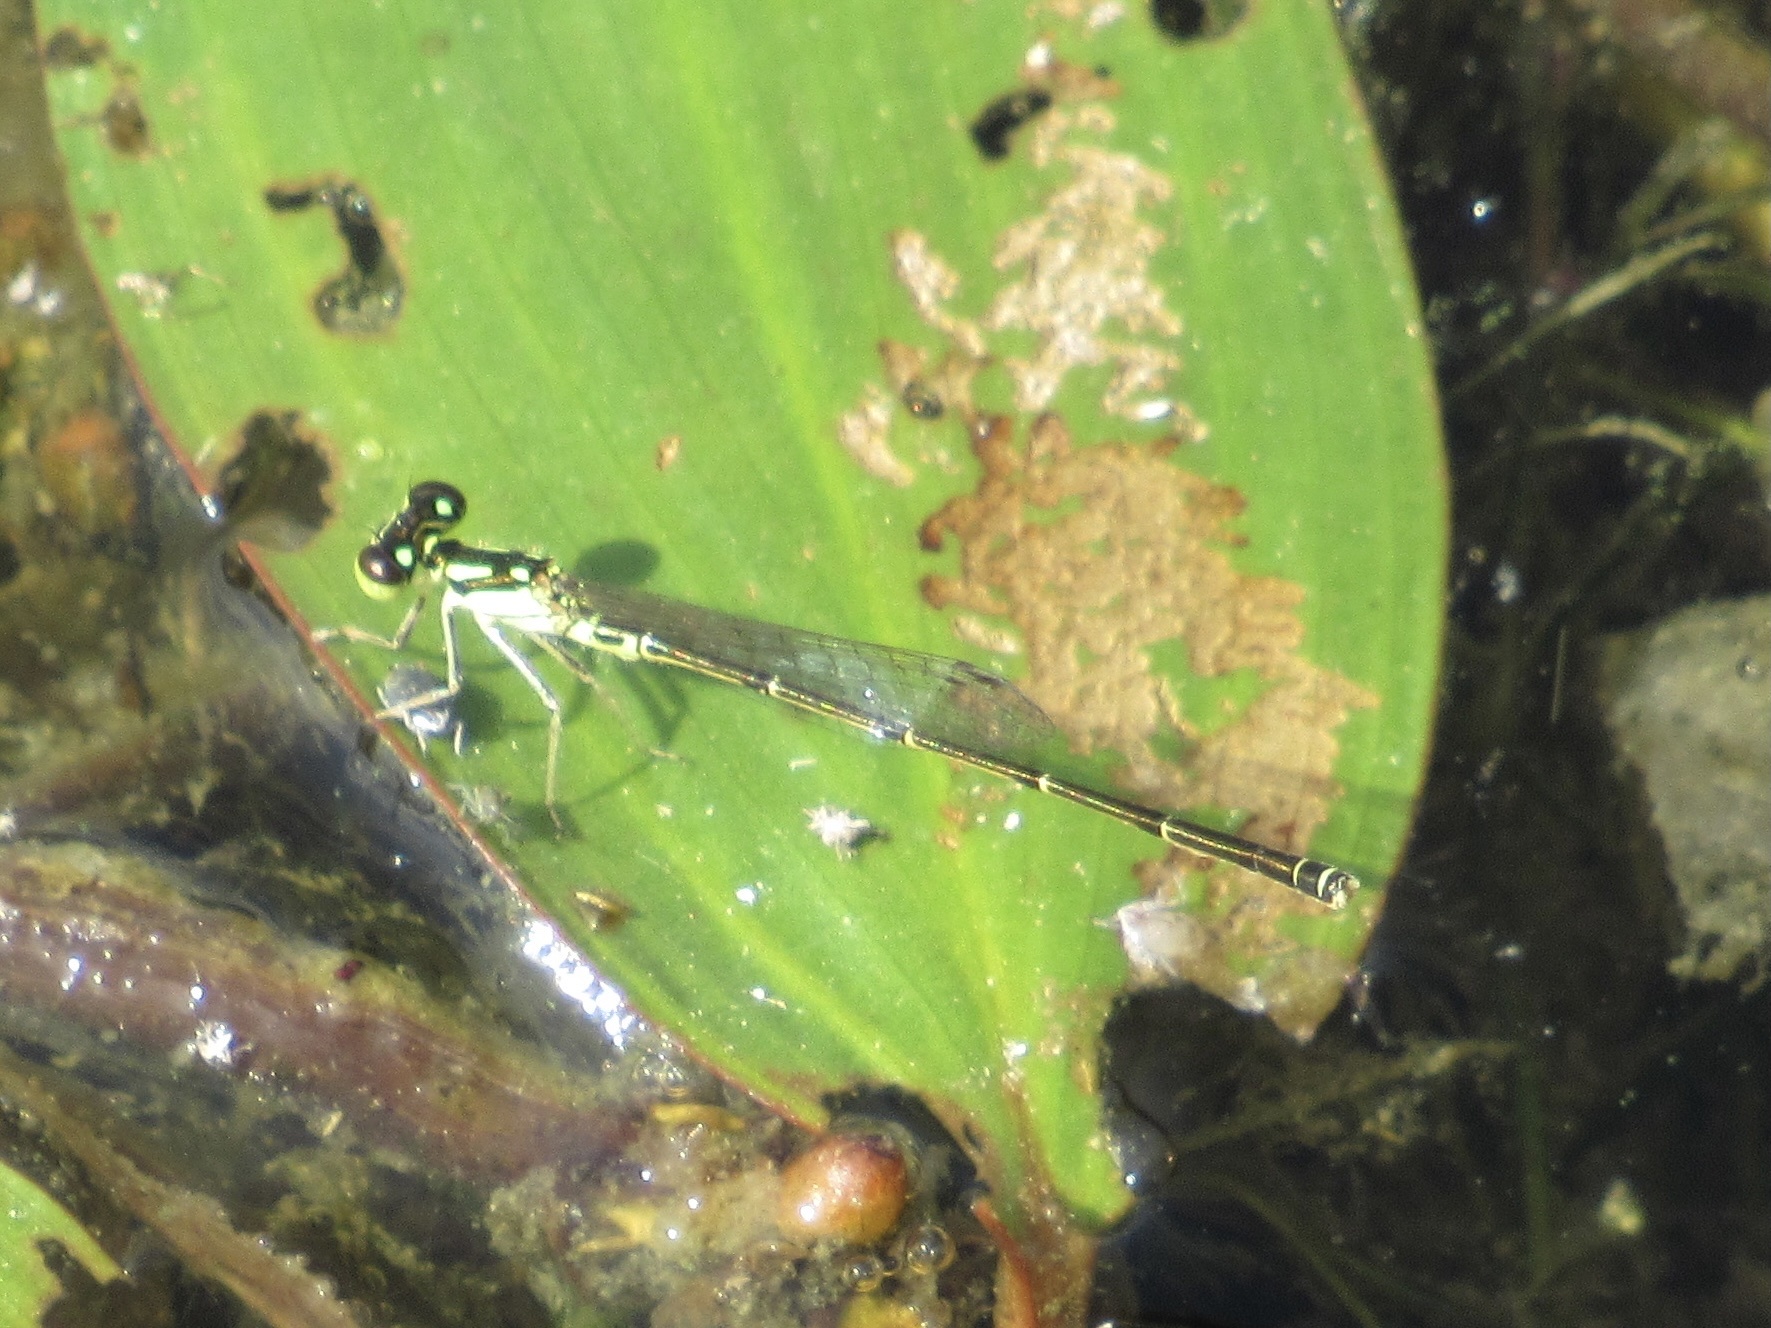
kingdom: Animalia
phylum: Arthropoda
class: Insecta
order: Odonata
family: Coenagrionidae
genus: Ischnura
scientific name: Ischnura posita
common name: Fragile forktail
